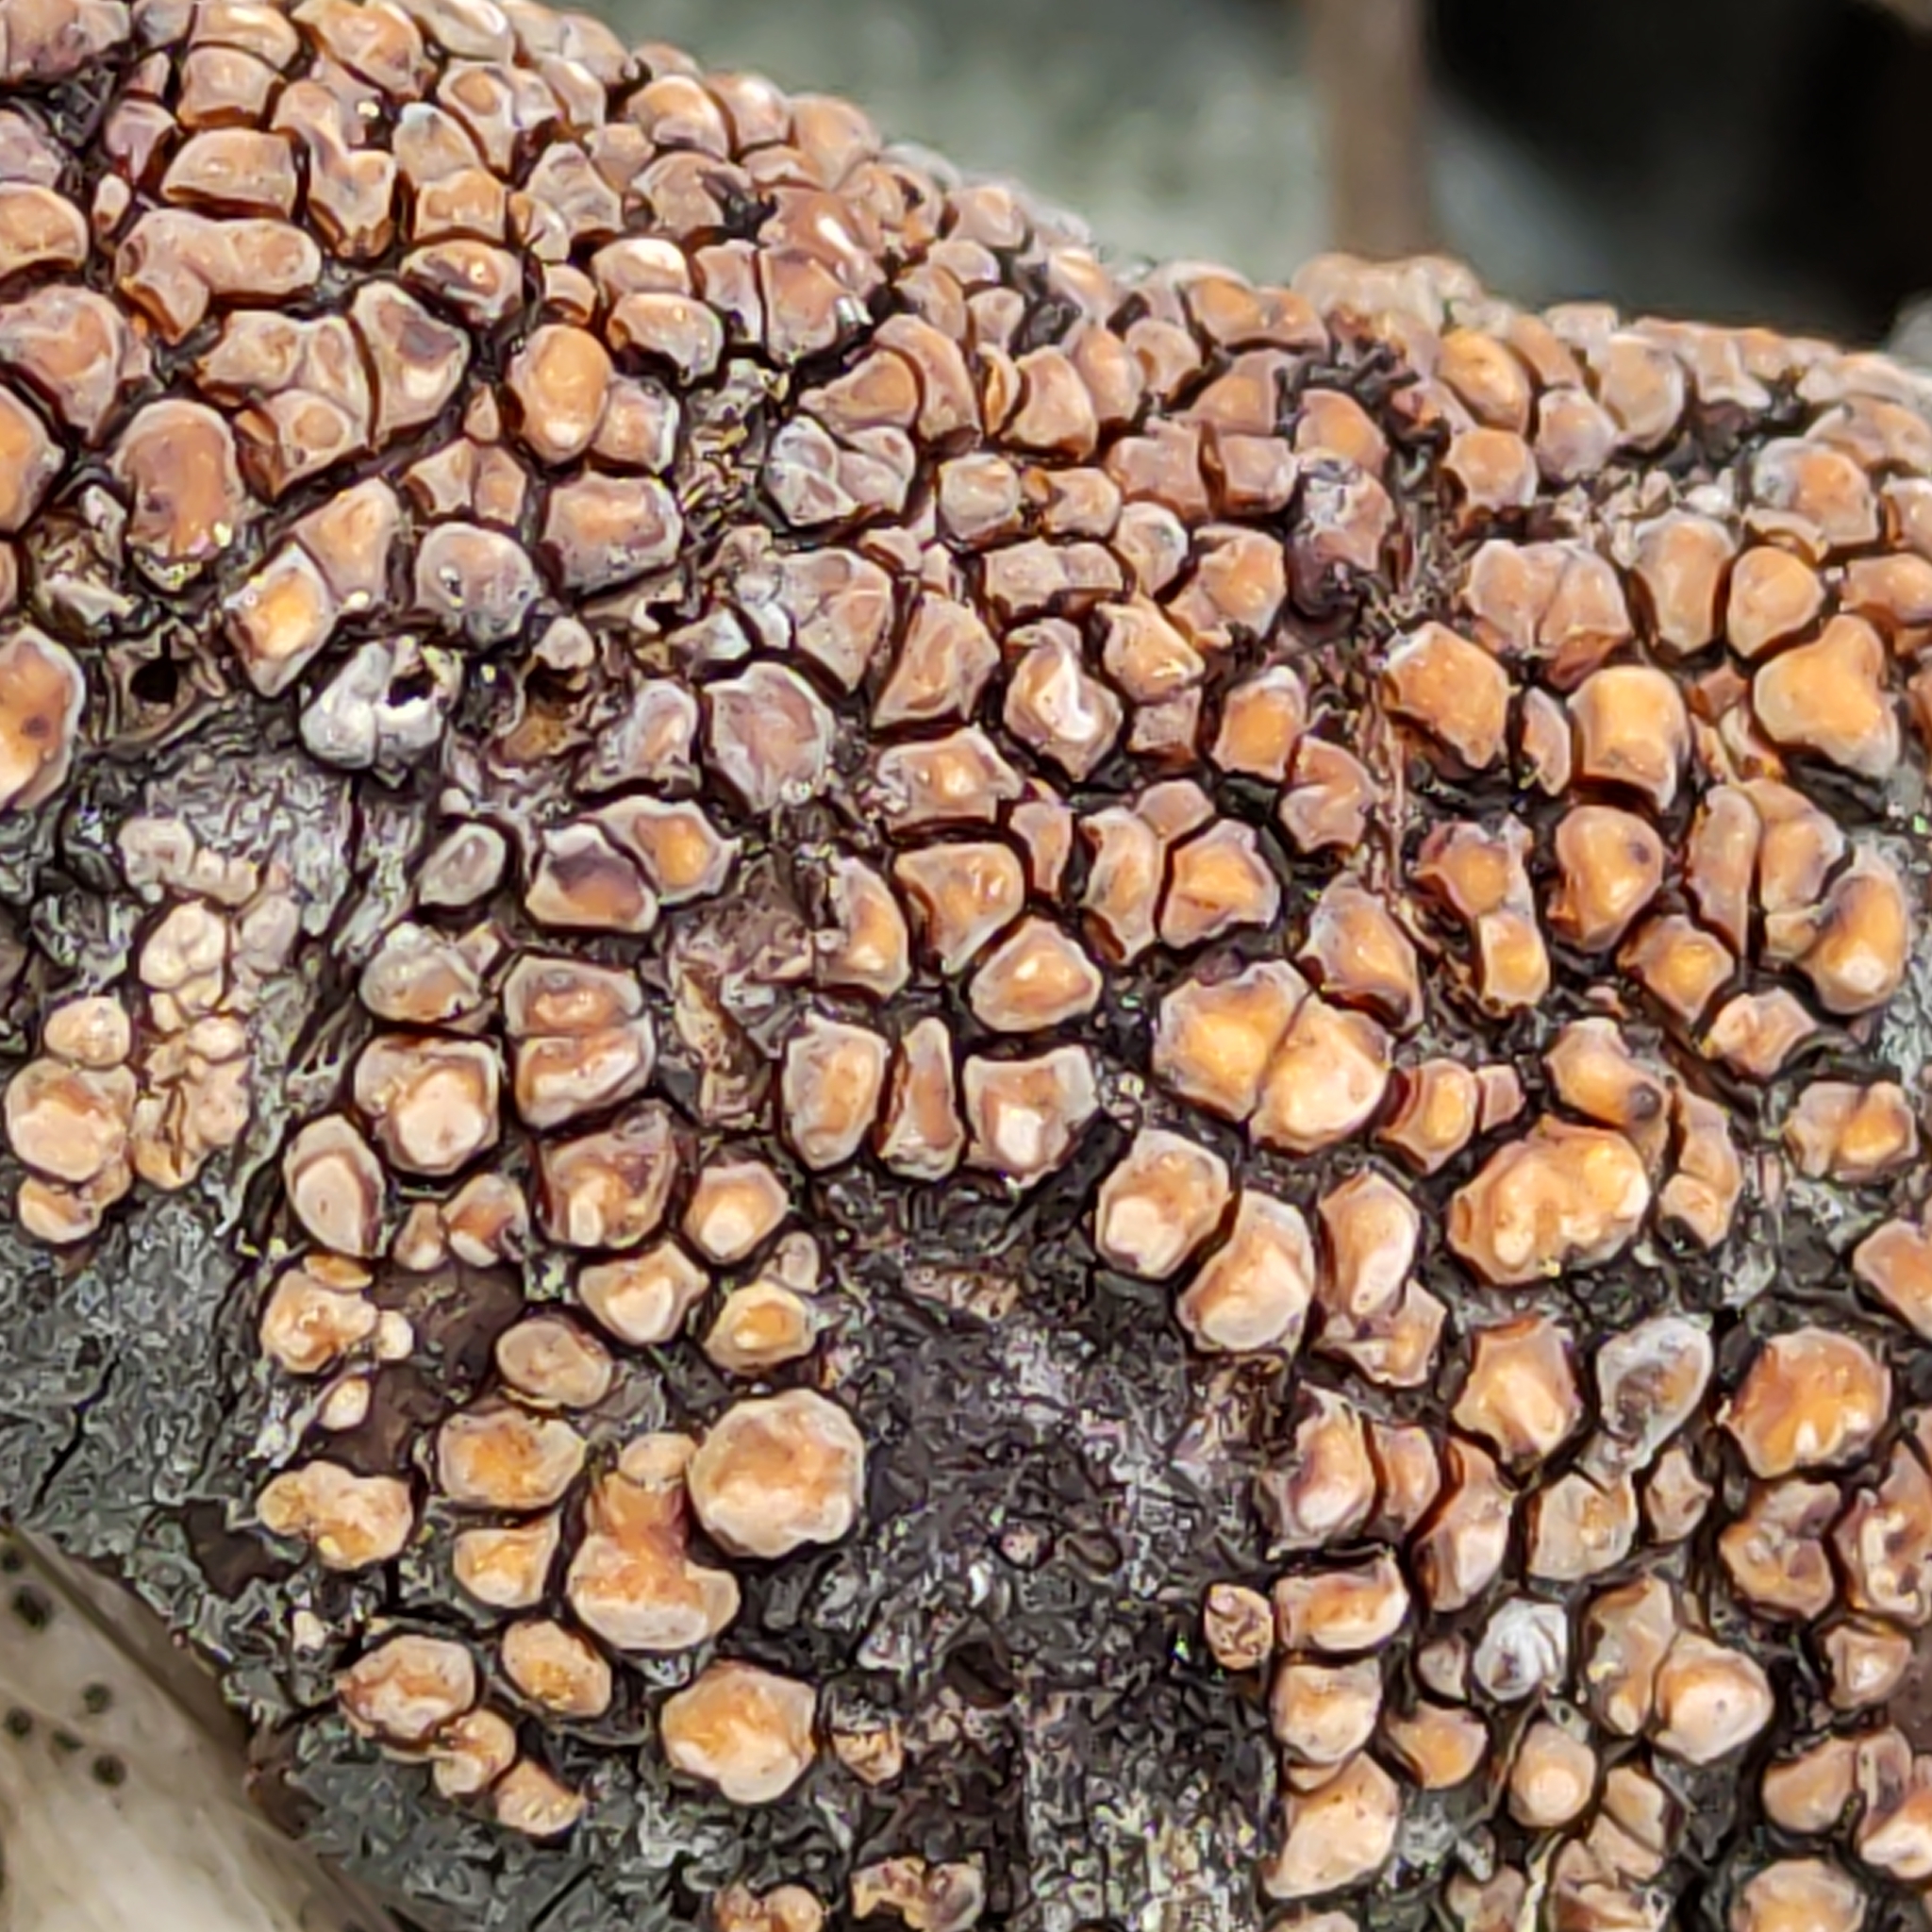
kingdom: Fungi
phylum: Basidiomycota
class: Agaricomycetes
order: Russulales
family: Stereaceae
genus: Aleurodiscus
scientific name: Aleurodiscus berggrenii
